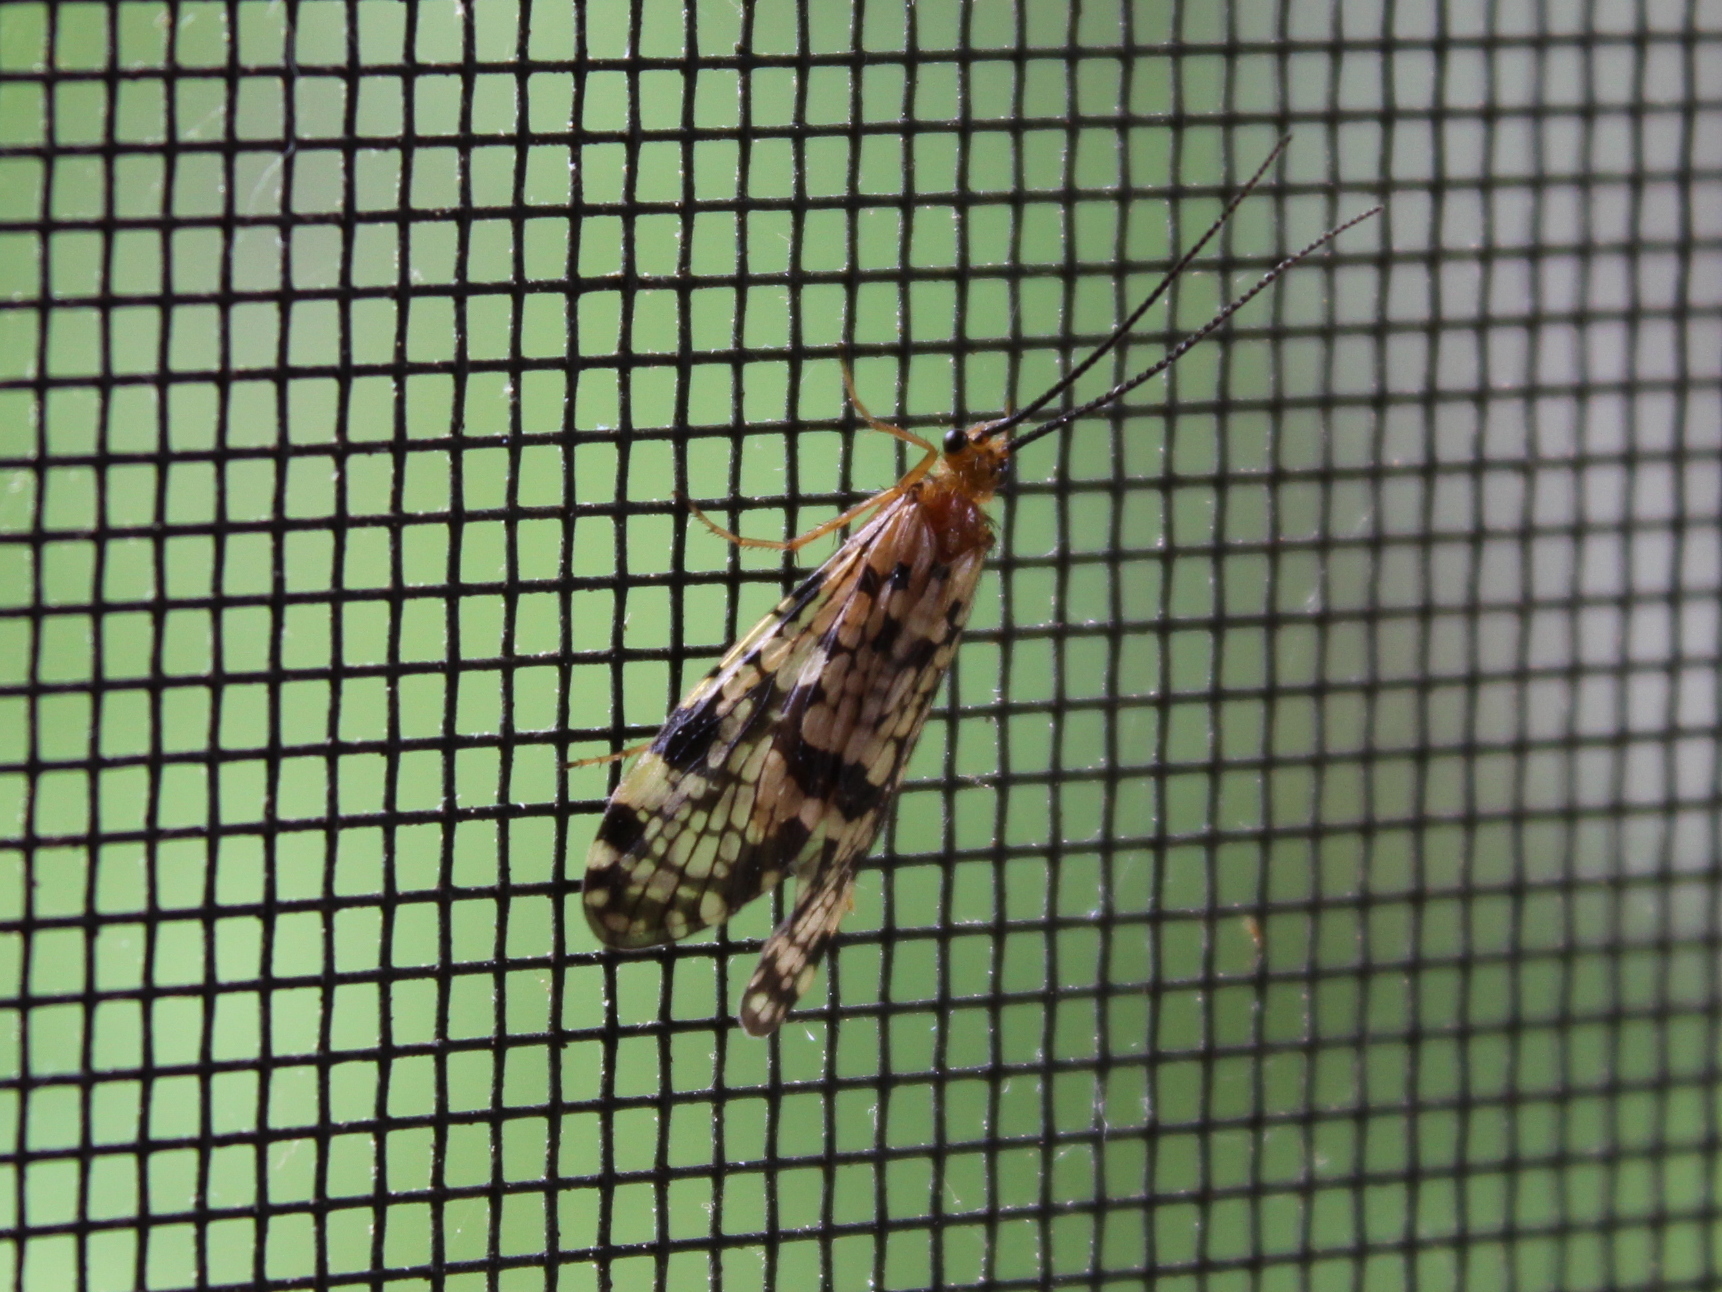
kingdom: Animalia
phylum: Arthropoda
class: Insecta
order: Trichoptera
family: Phryganeidae
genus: Banksiola
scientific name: Banksiola dossuaria
